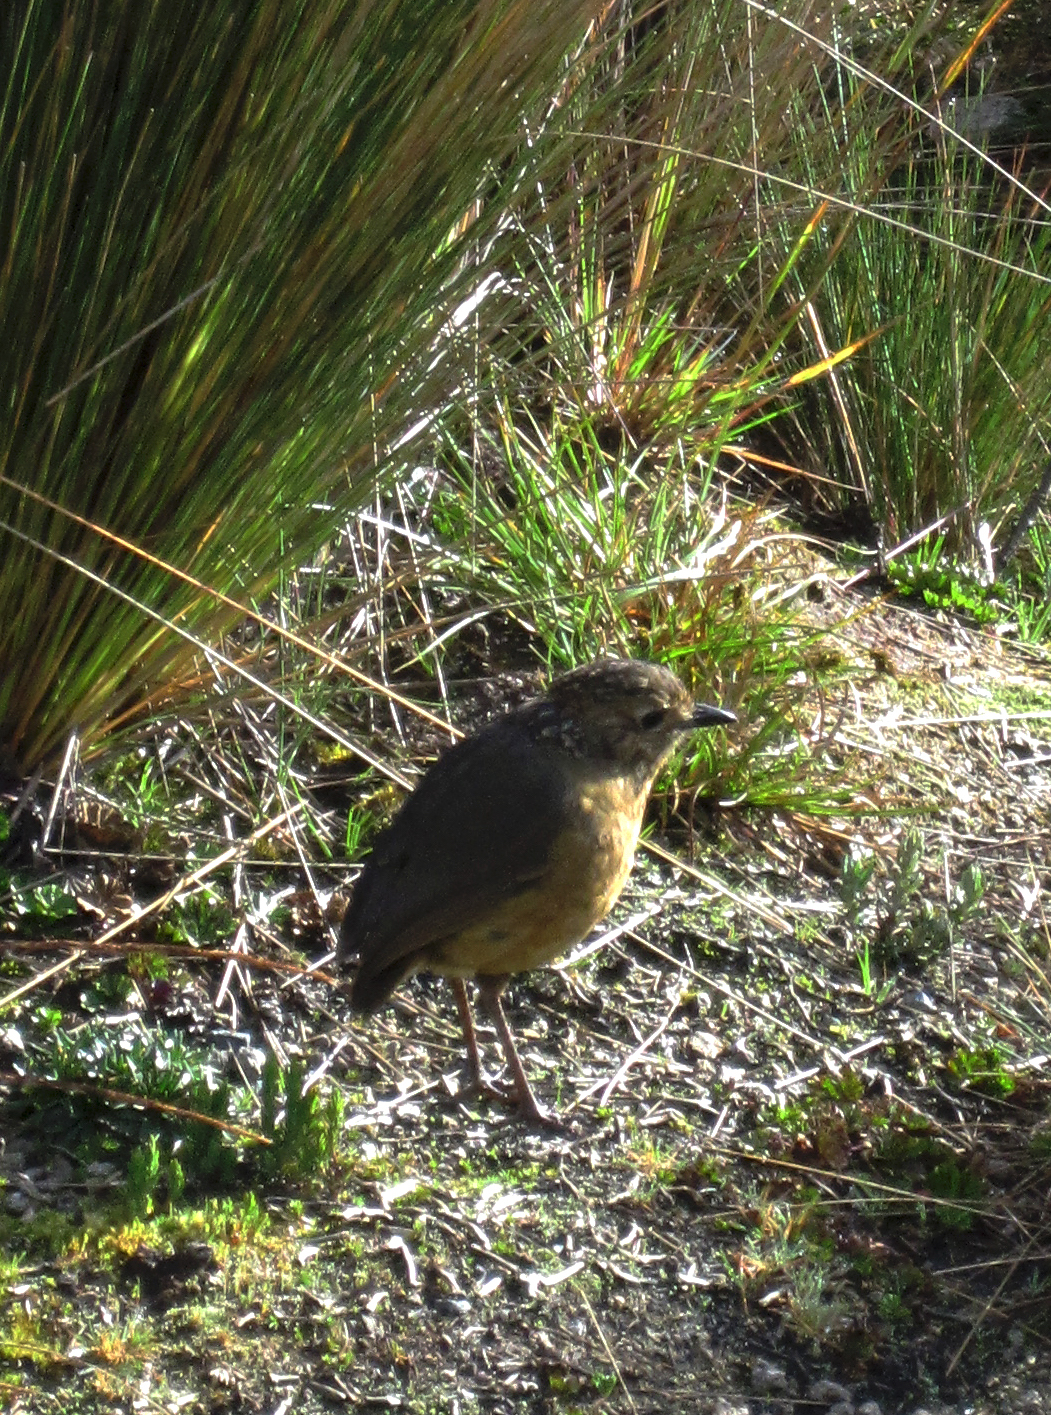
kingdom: Animalia
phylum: Chordata
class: Aves
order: Passeriformes
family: Grallariidae
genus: Grallaria
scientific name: Grallaria quitensis
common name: Tawny antpitta
